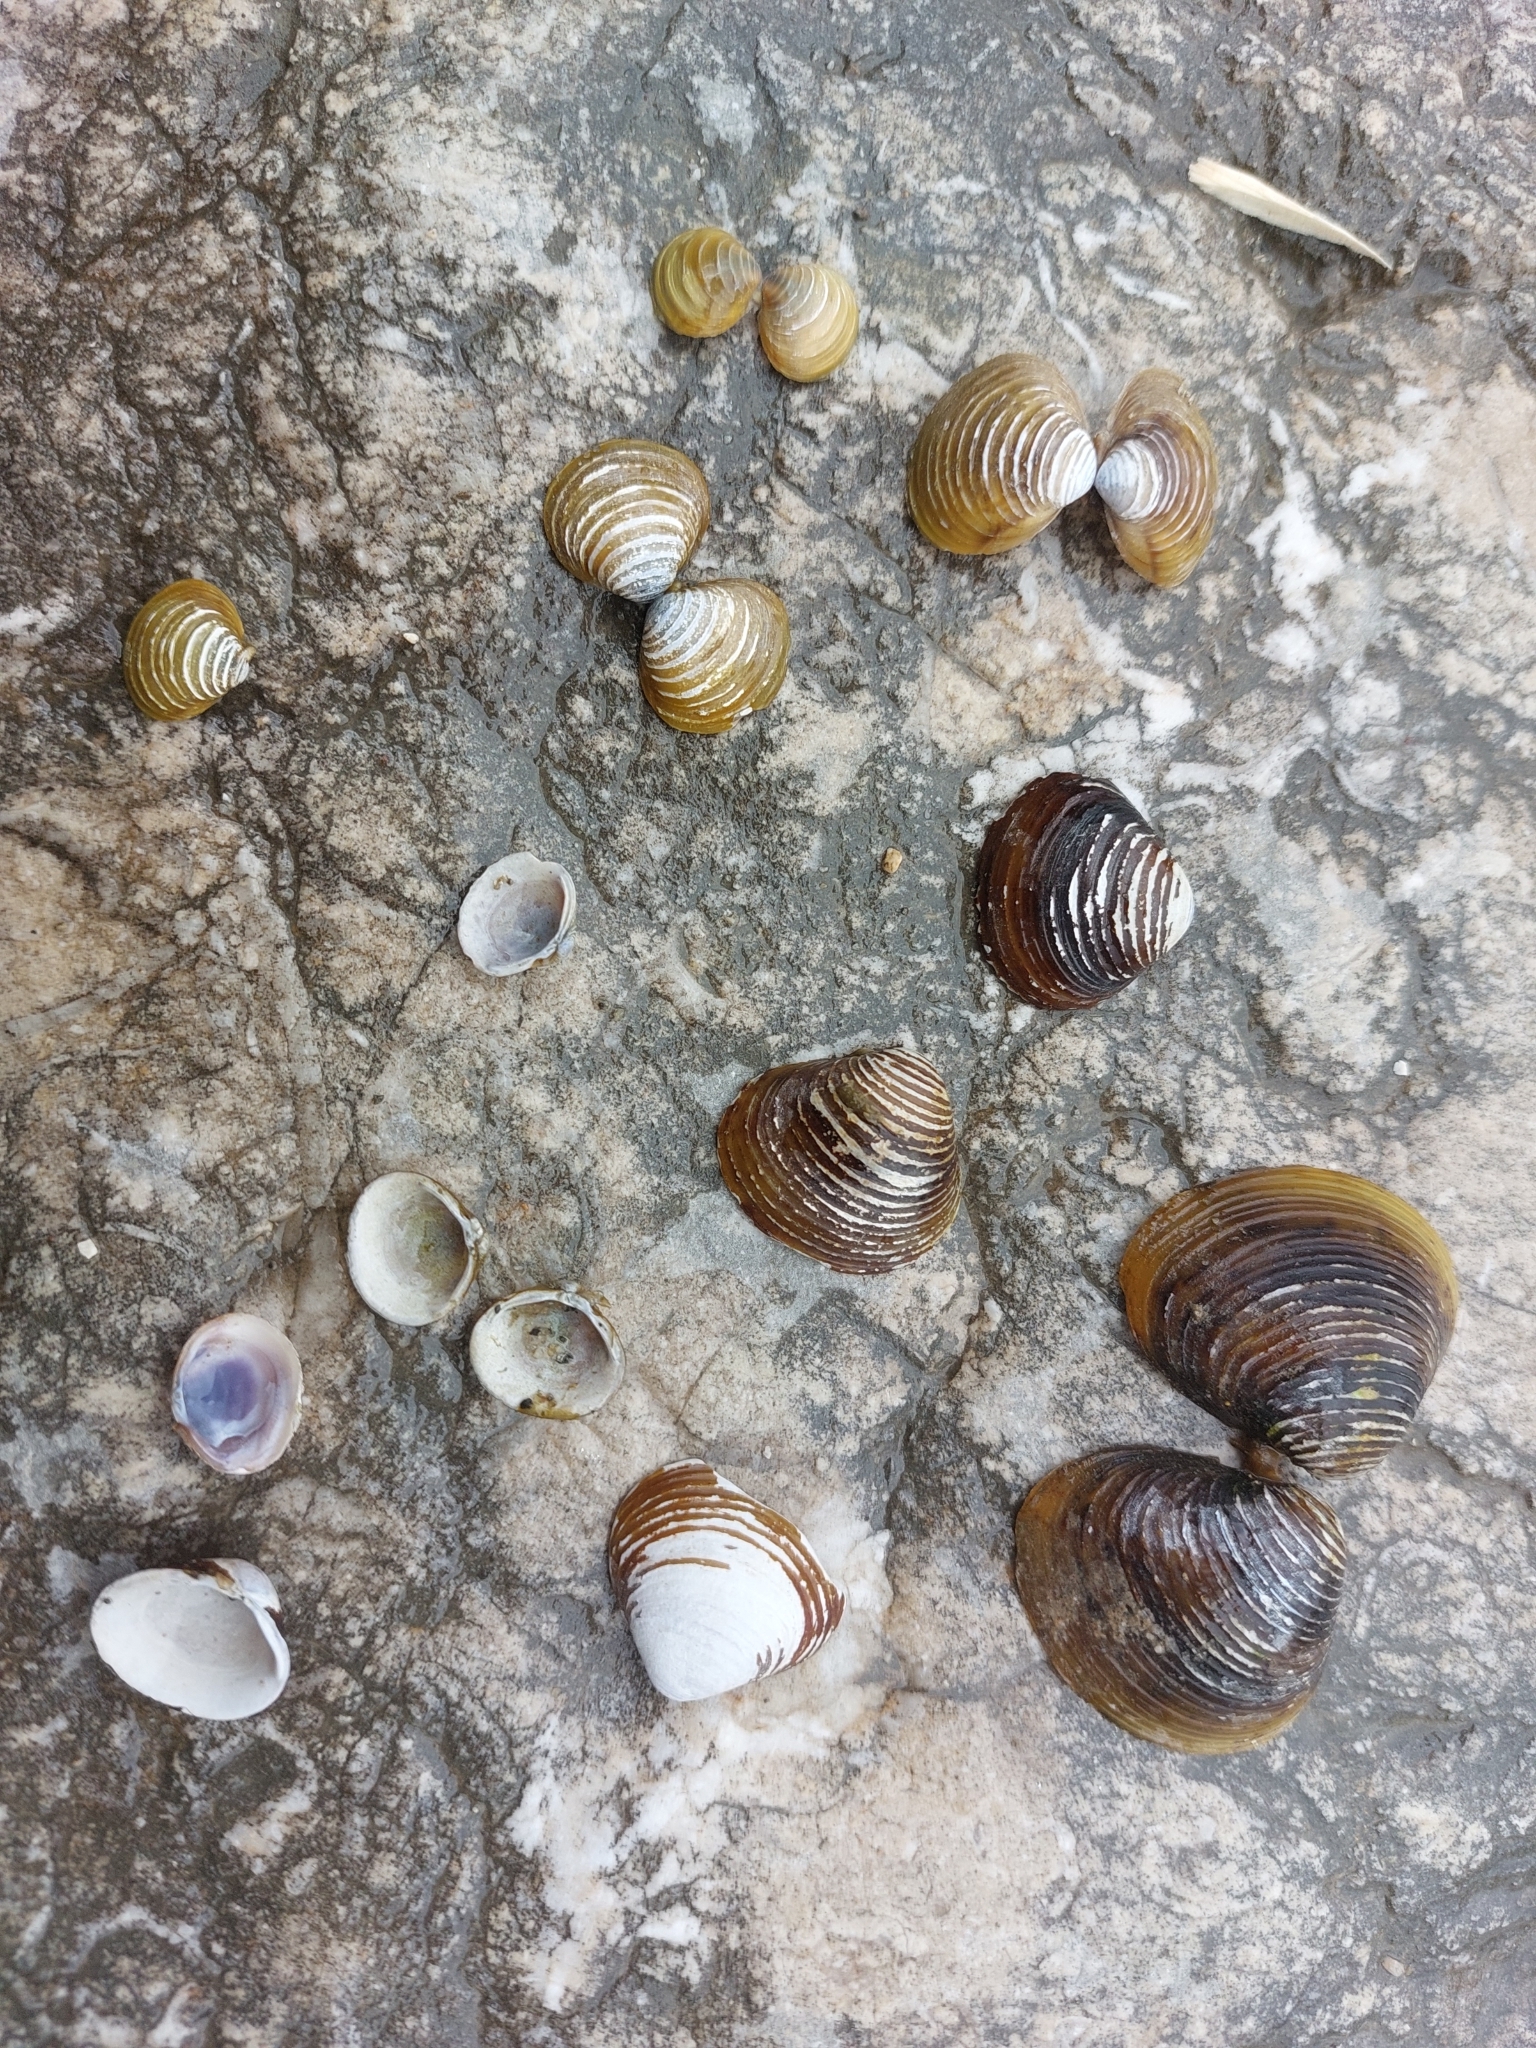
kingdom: Animalia
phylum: Mollusca
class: Bivalvia
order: Venerida
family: Cyrenidae
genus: Corbicula
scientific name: Corbicula fluminea
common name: Asian clam
